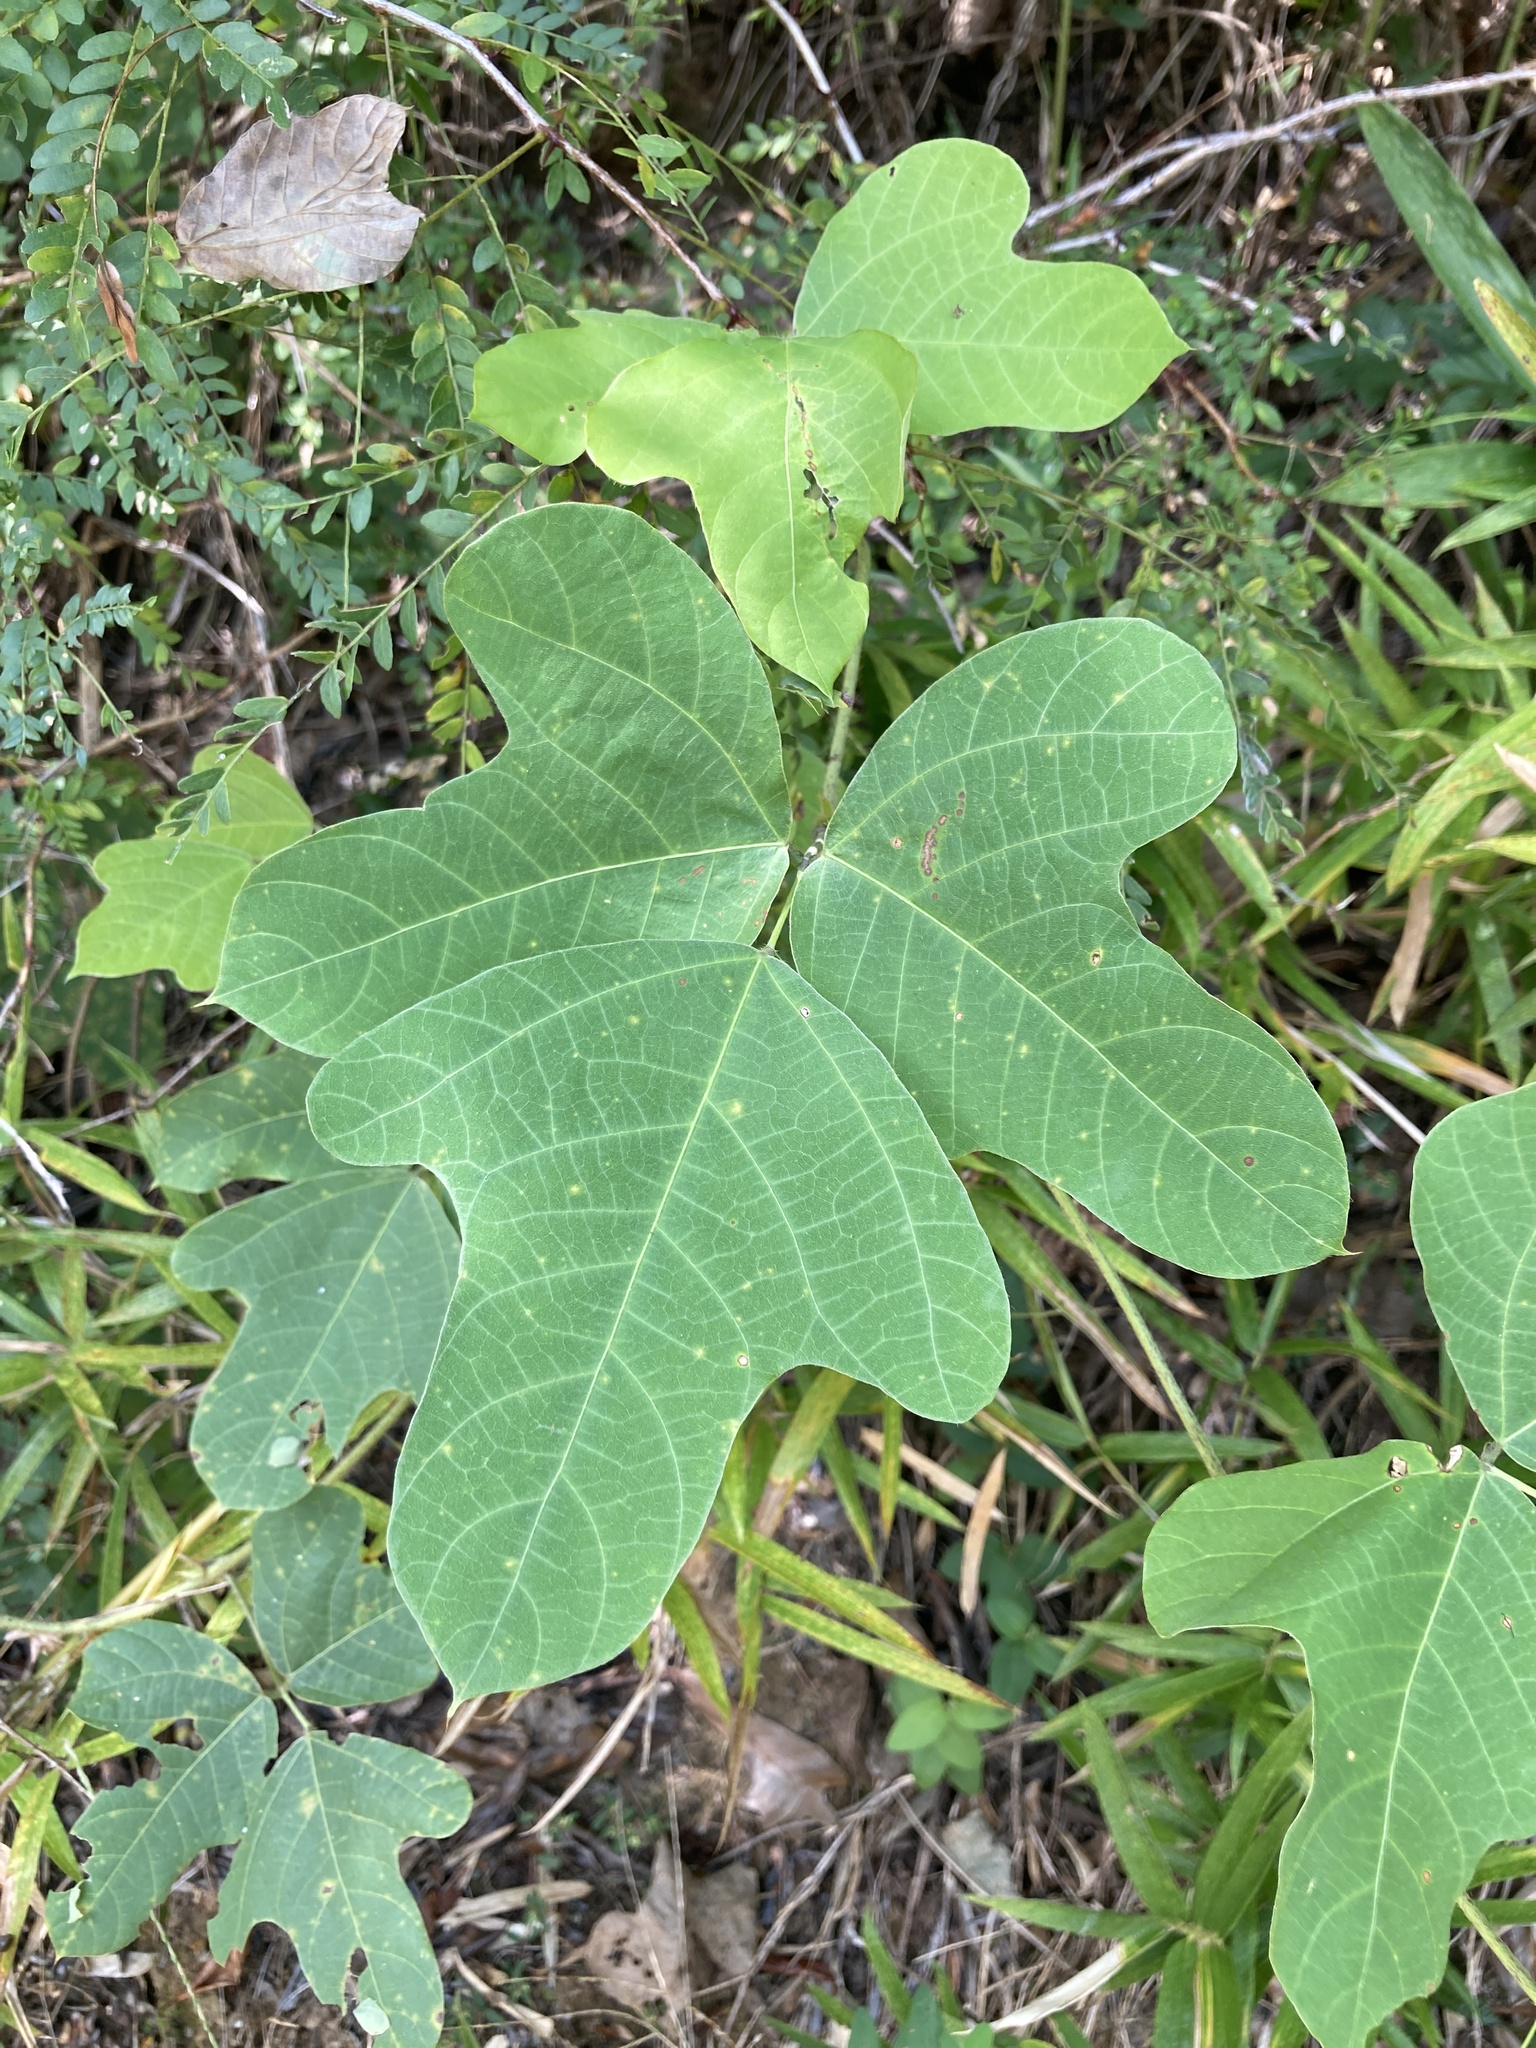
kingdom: Plantae
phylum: Tracheophyta
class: Magnoliopsida
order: Fabales
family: Fabaceae
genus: Pueraria
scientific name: Pueraria montana
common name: Kudzu
